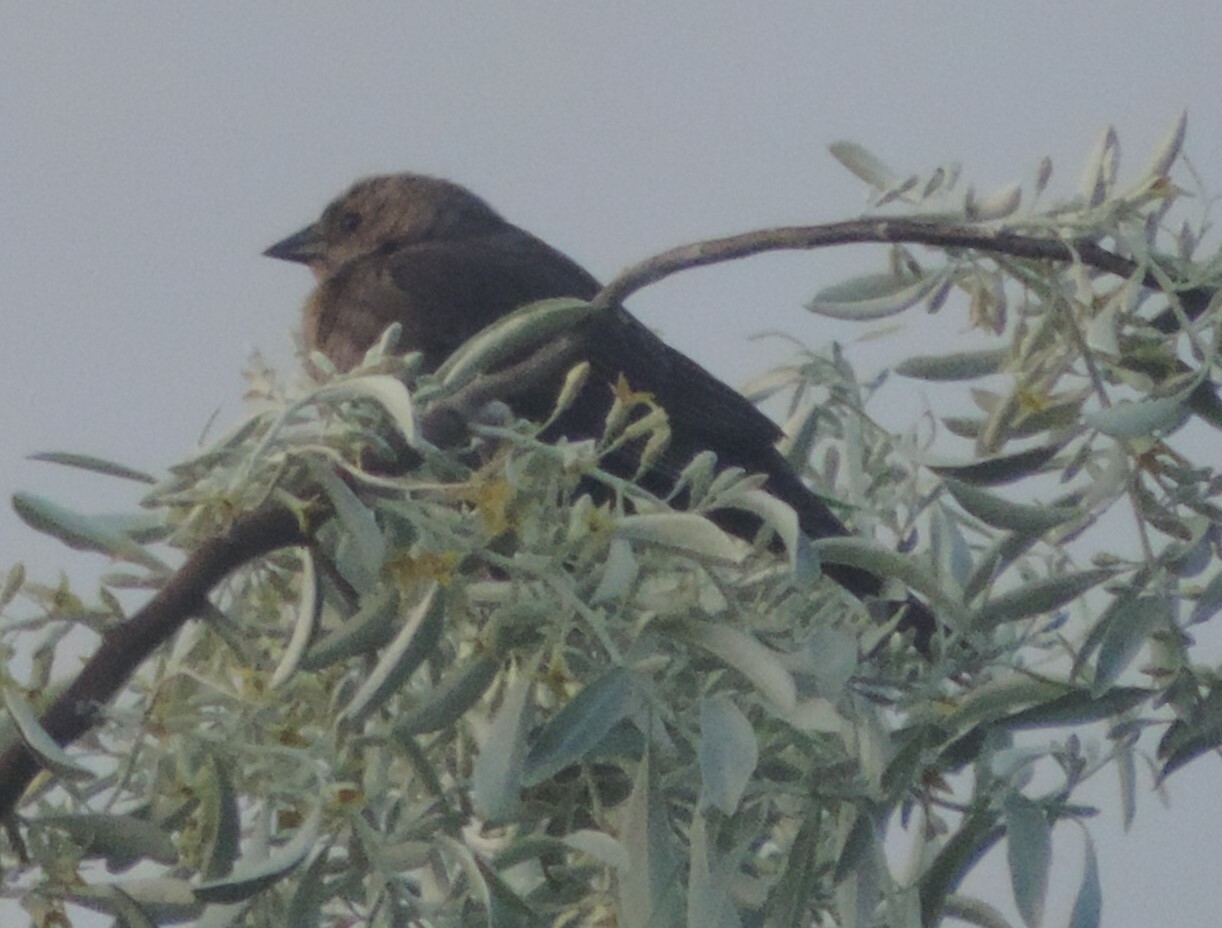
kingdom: Animalia
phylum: Chordata
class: Aves
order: Passeriformes
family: Icteridae
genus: Molothrus
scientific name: Molothrus ater
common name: Brown-headed cowbird
